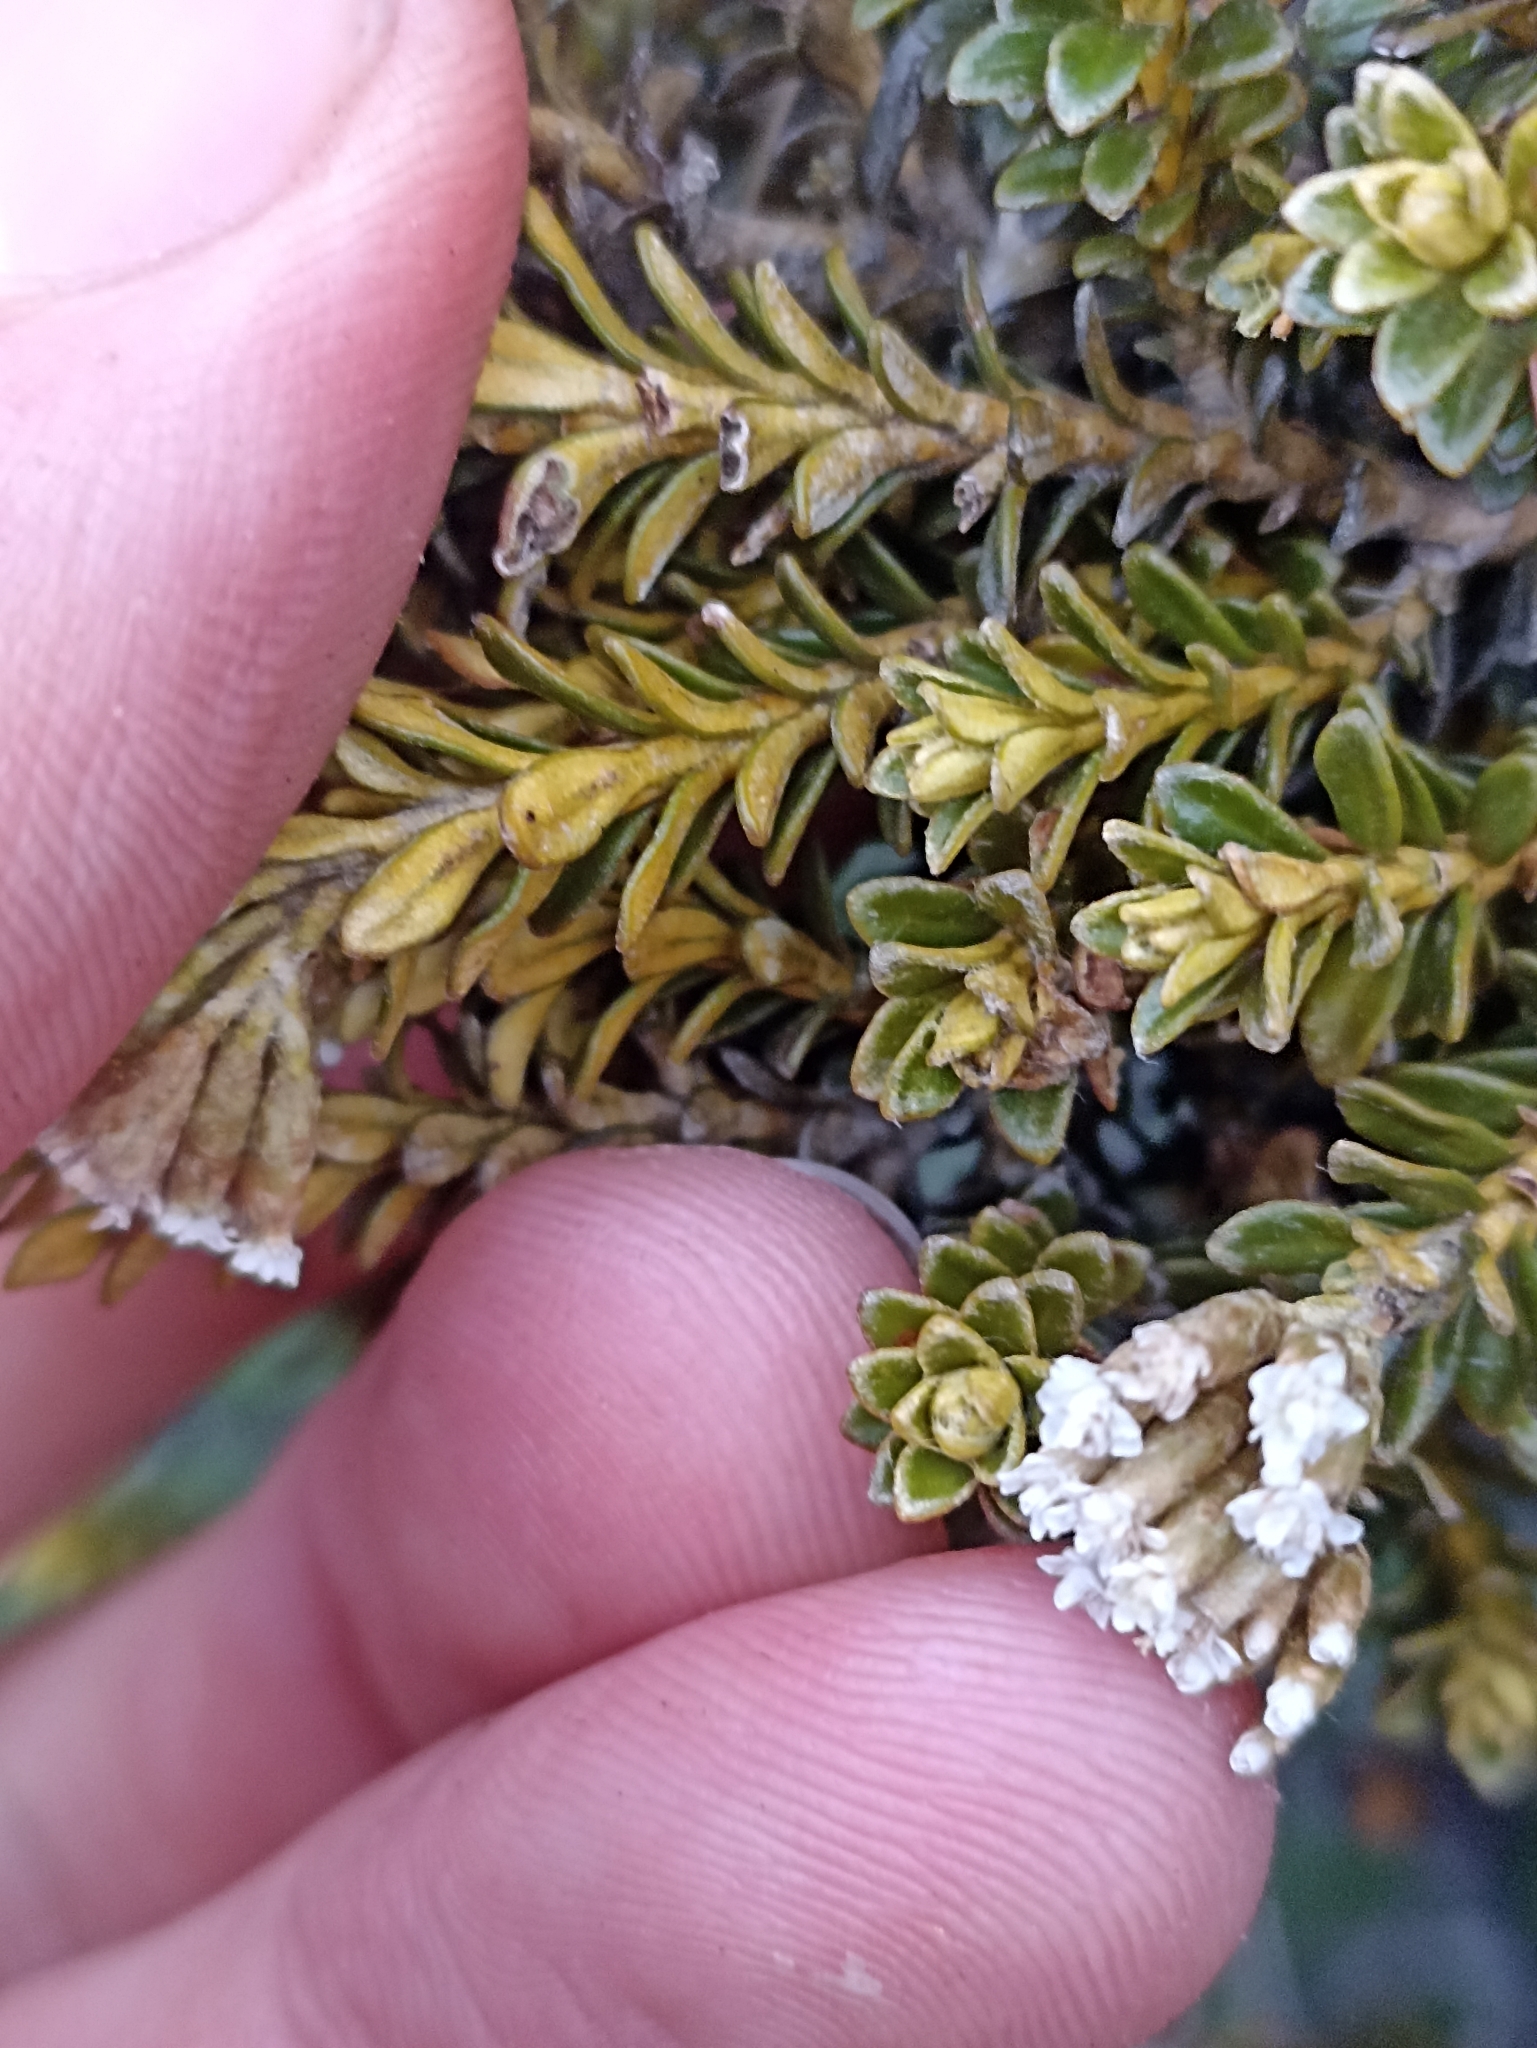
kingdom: Plantae
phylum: Tracheophyta
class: Magnoliopsida
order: Asterales
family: Asteraceae
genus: Ozothamnus
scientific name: Ozothamnus leptophyllus
